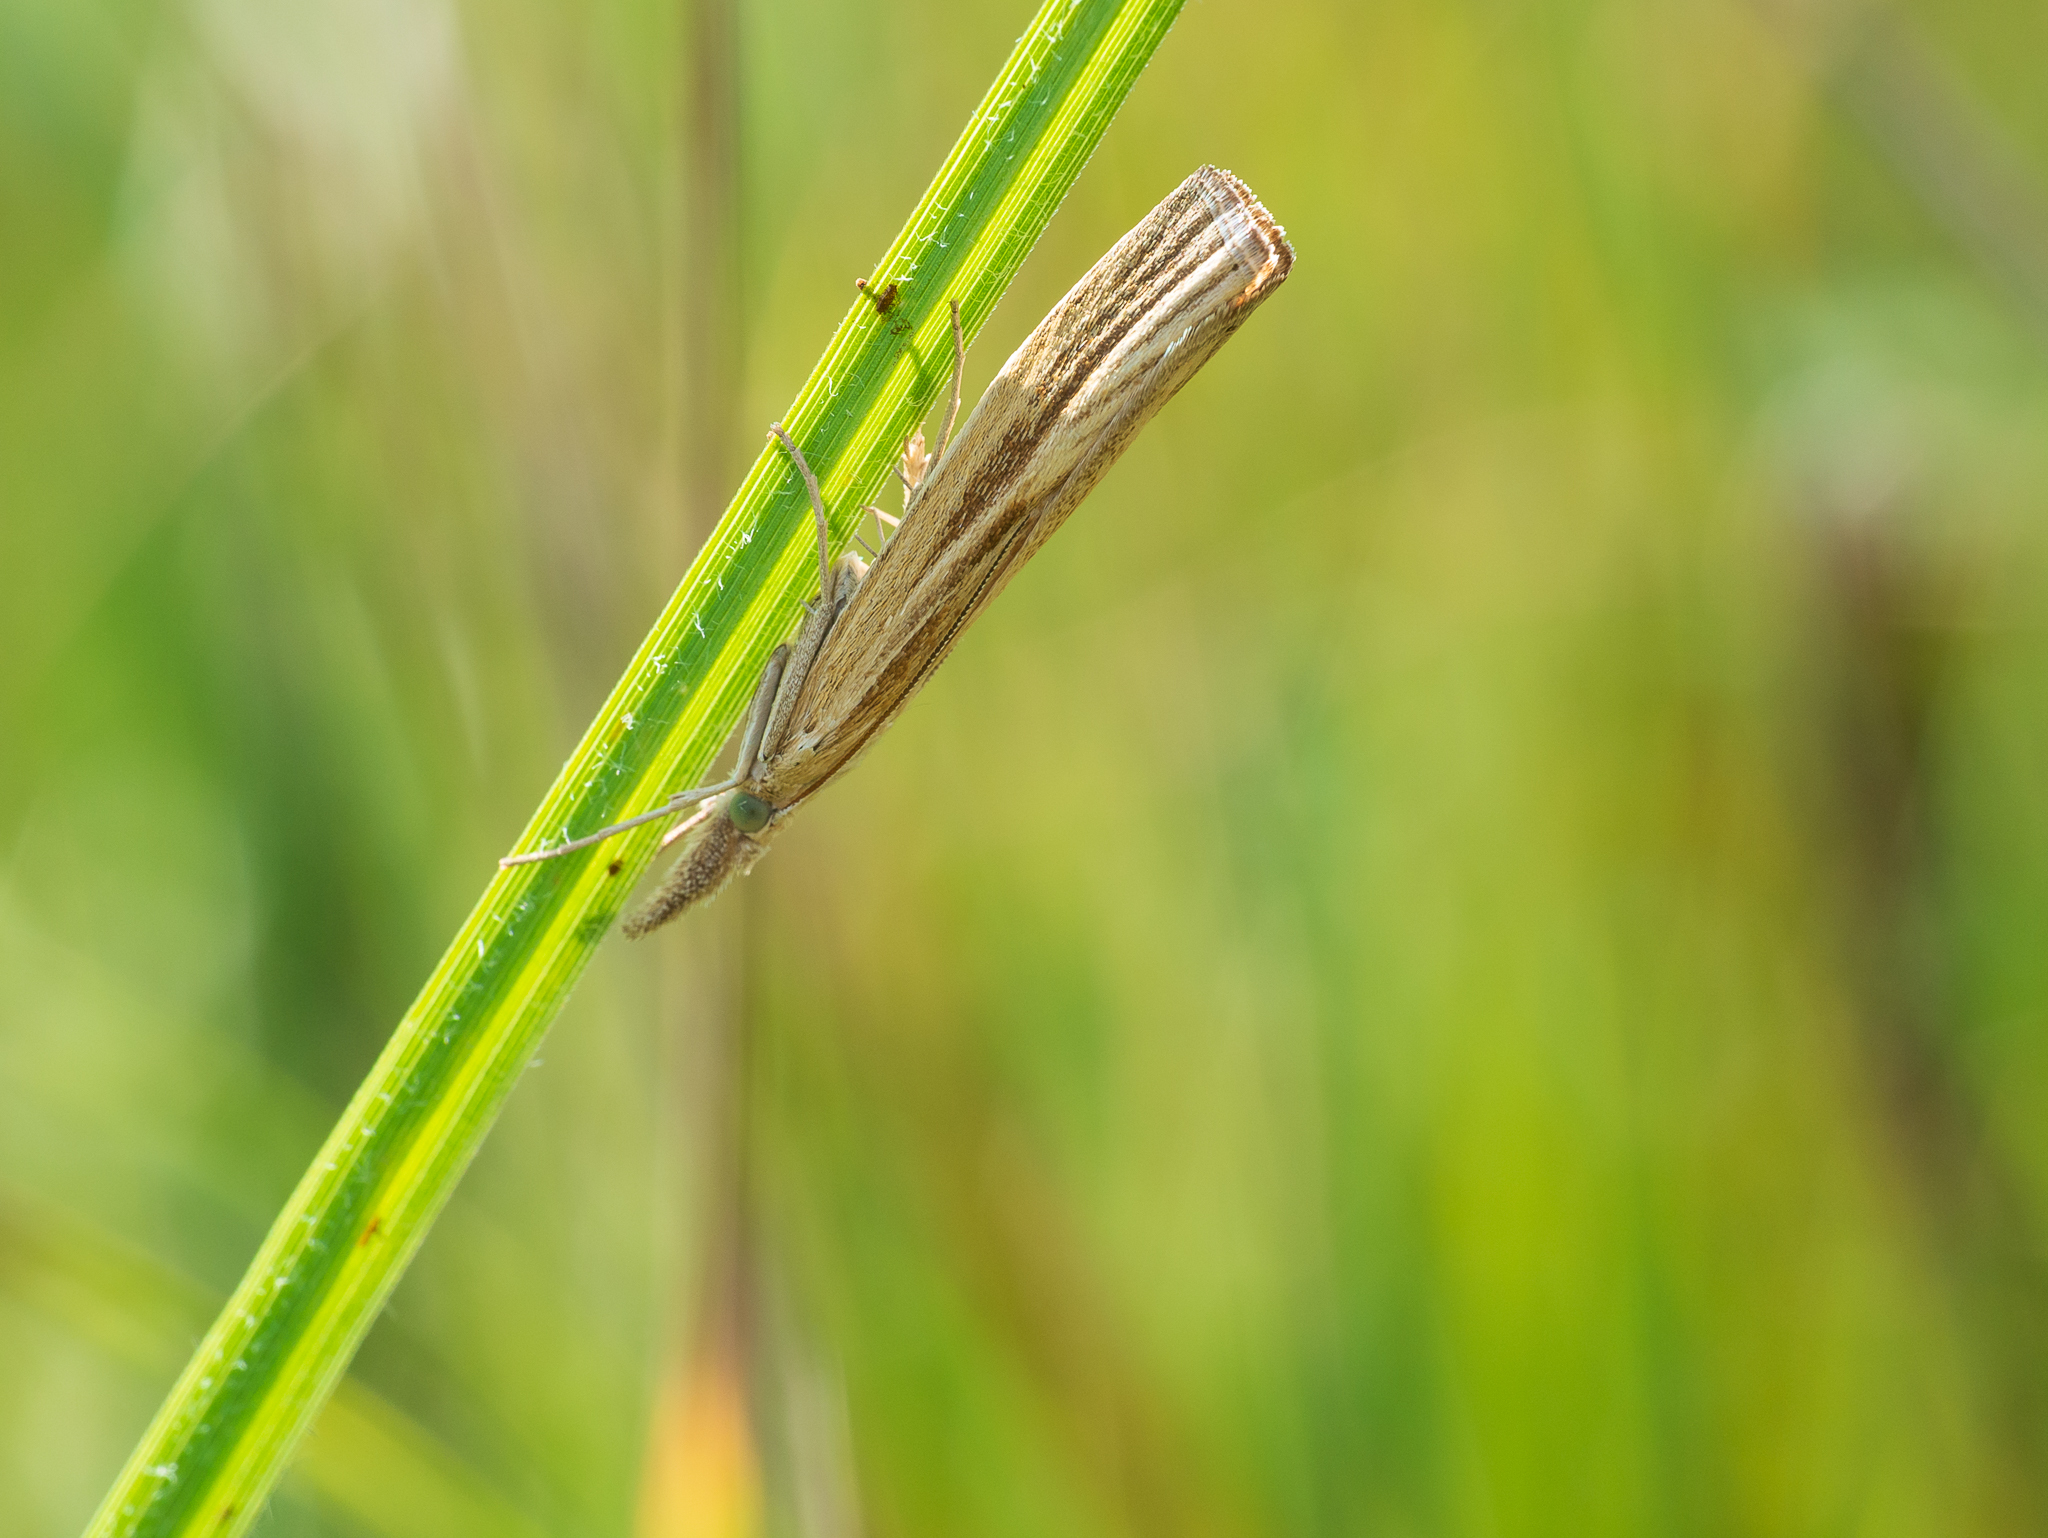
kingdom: Animalia
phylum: Arthropoda
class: Insecta
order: Lepidoptera
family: Crambidae
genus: Agriphila
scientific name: Agriphila tristellus
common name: Common grass-veneer
